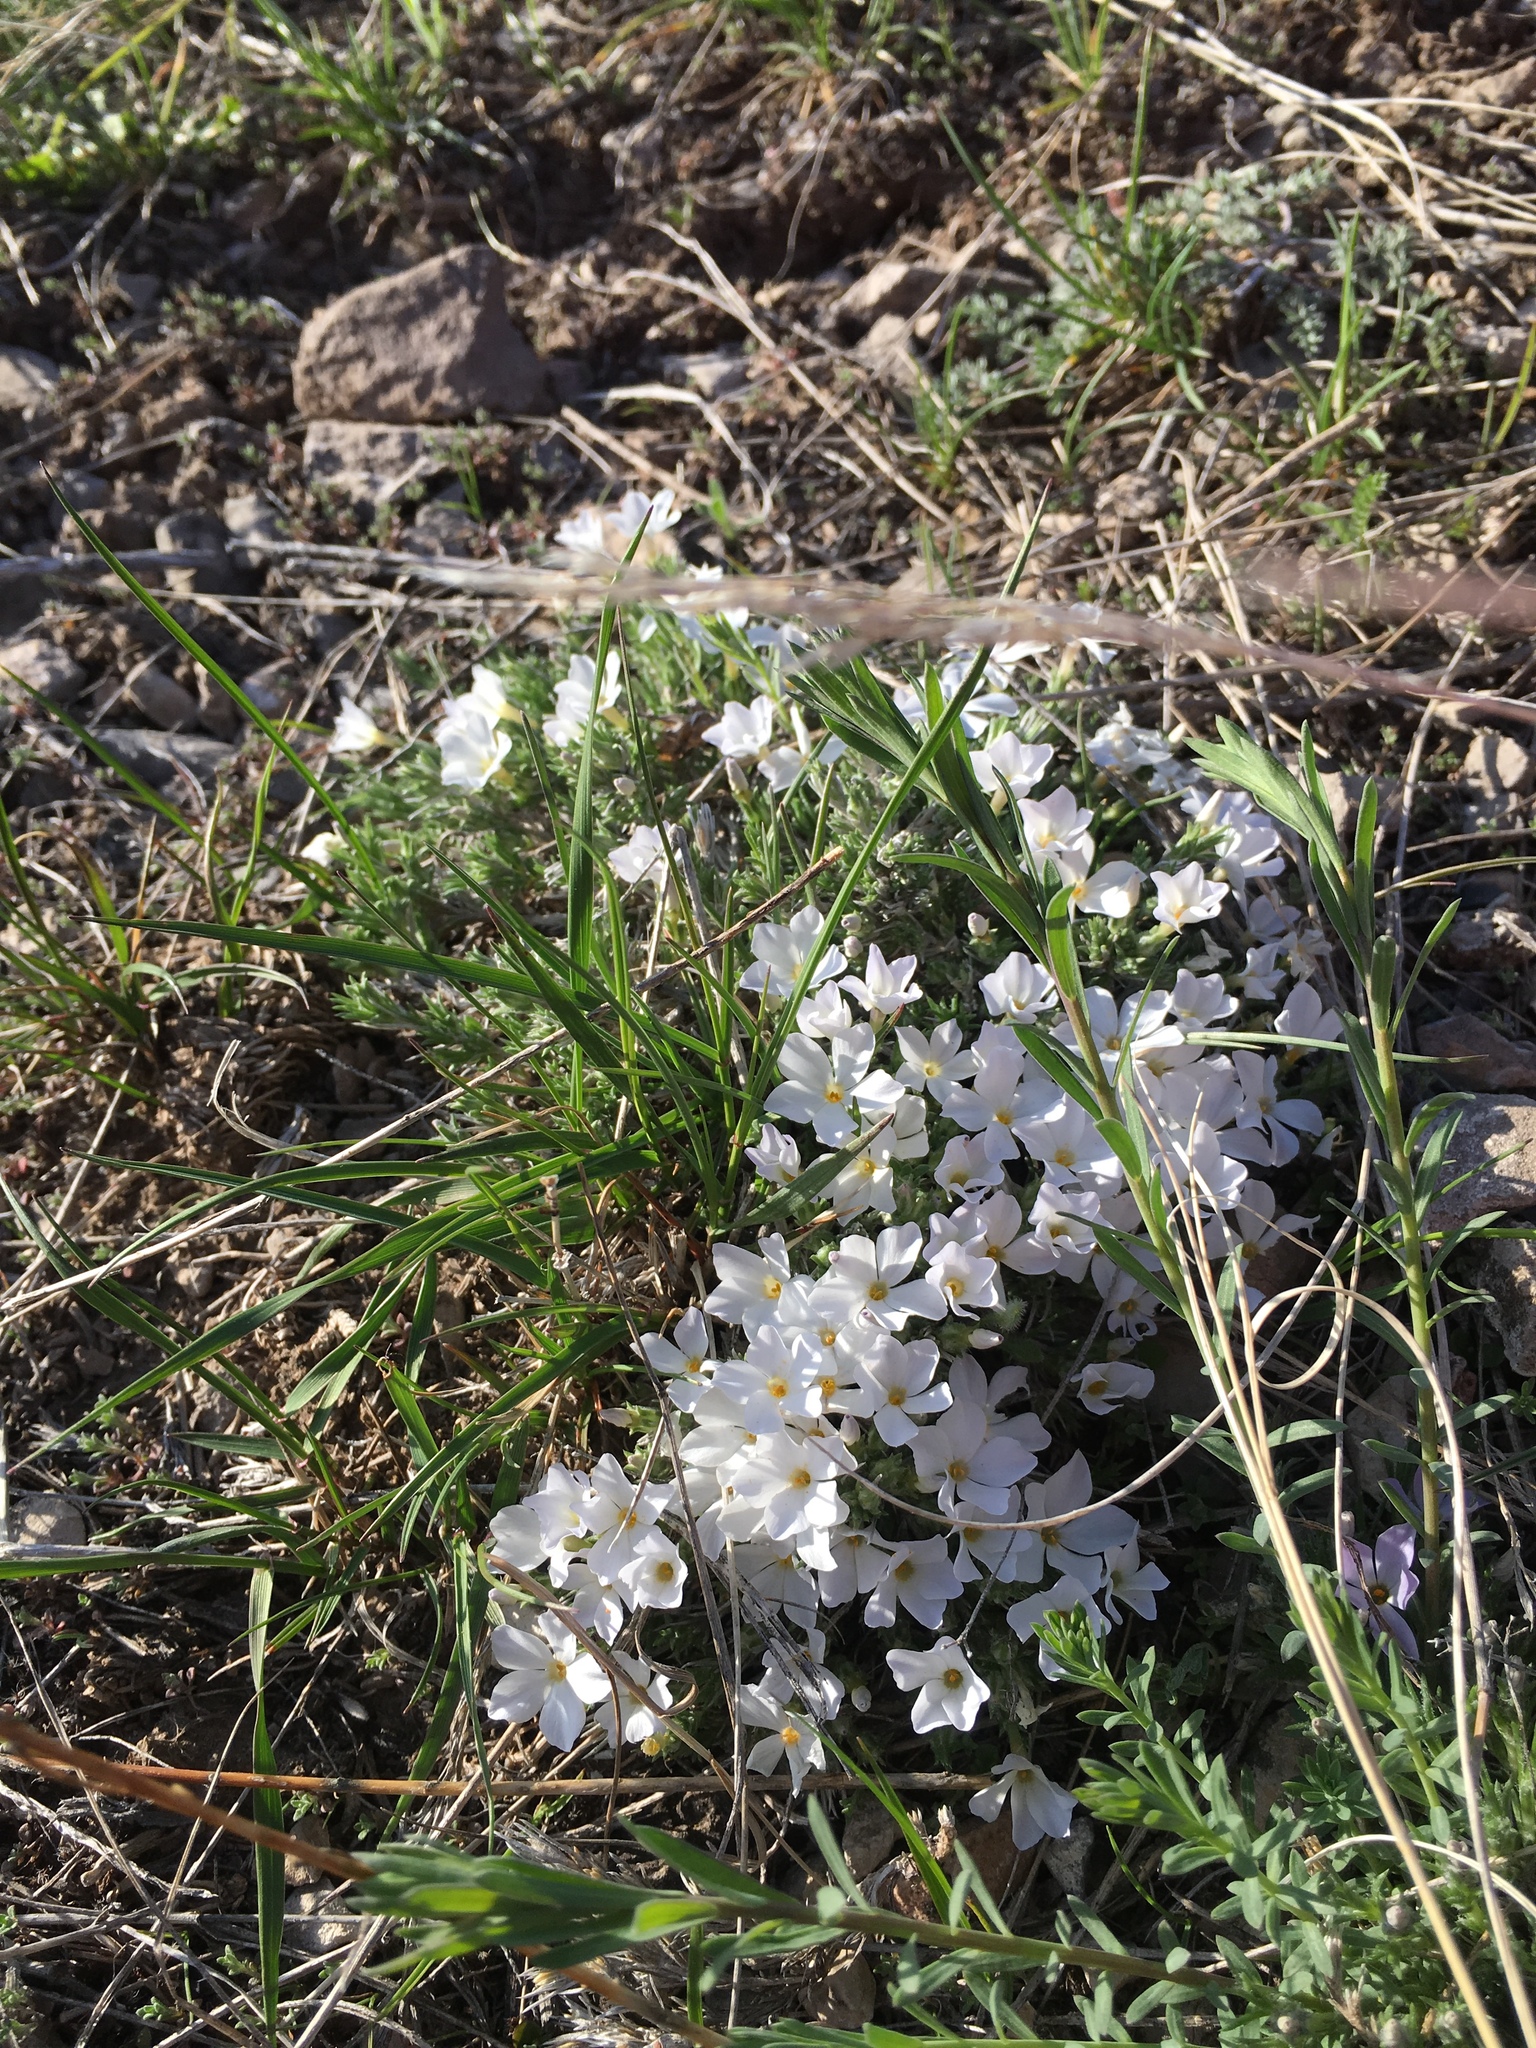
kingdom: Plantae
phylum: Tracheophyta
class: Magnoliopsida
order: Ericales
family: Polemoniaceae
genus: Phlox
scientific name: Phlox hoodii
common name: Moss phlox
